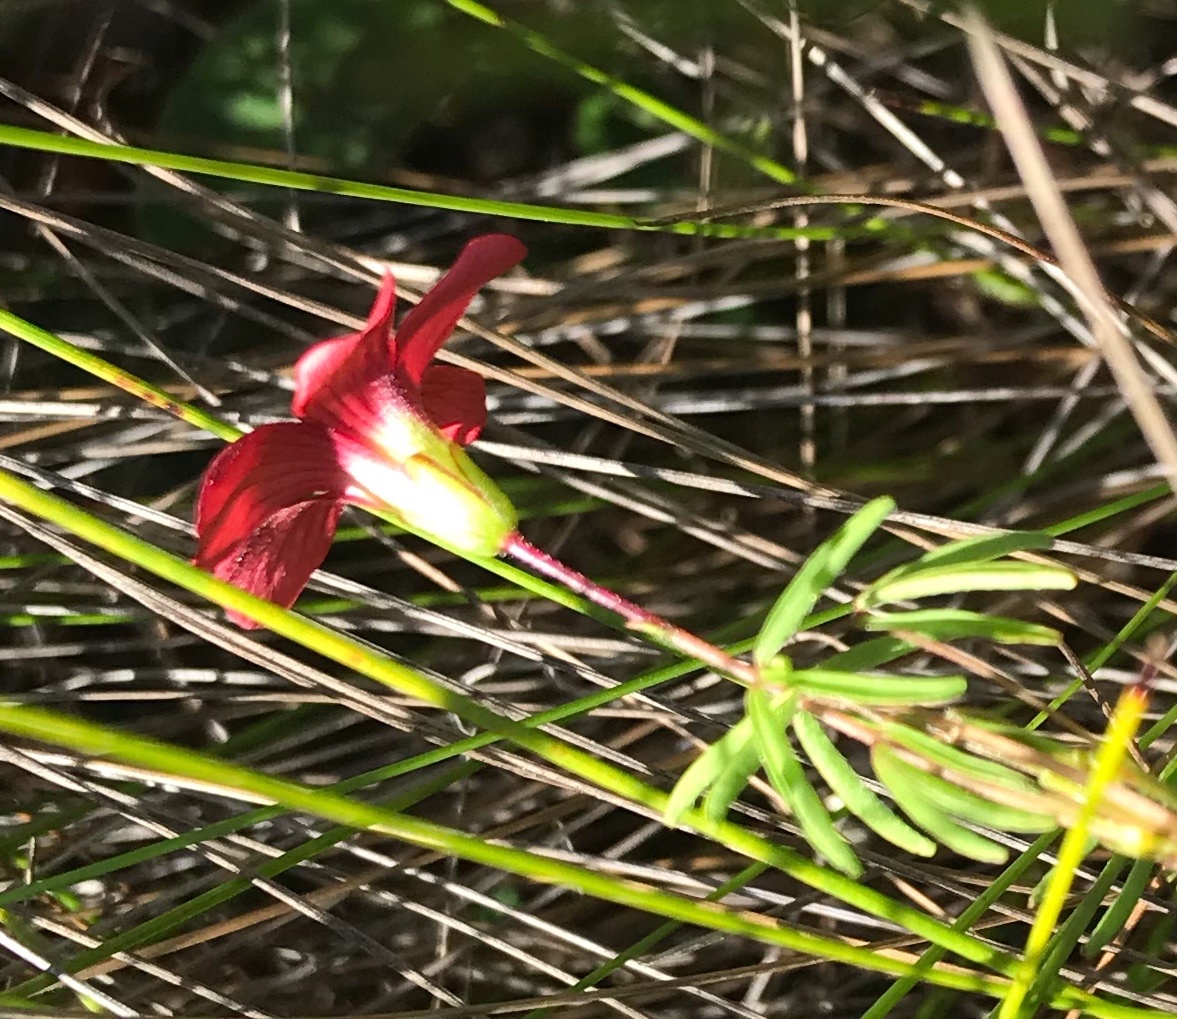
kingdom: Plantae
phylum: Tracheophyta
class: Magnoliopsida
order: Oxalidales
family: Oxalidaceae
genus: Oxalis
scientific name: Oxalis pendulifolia
